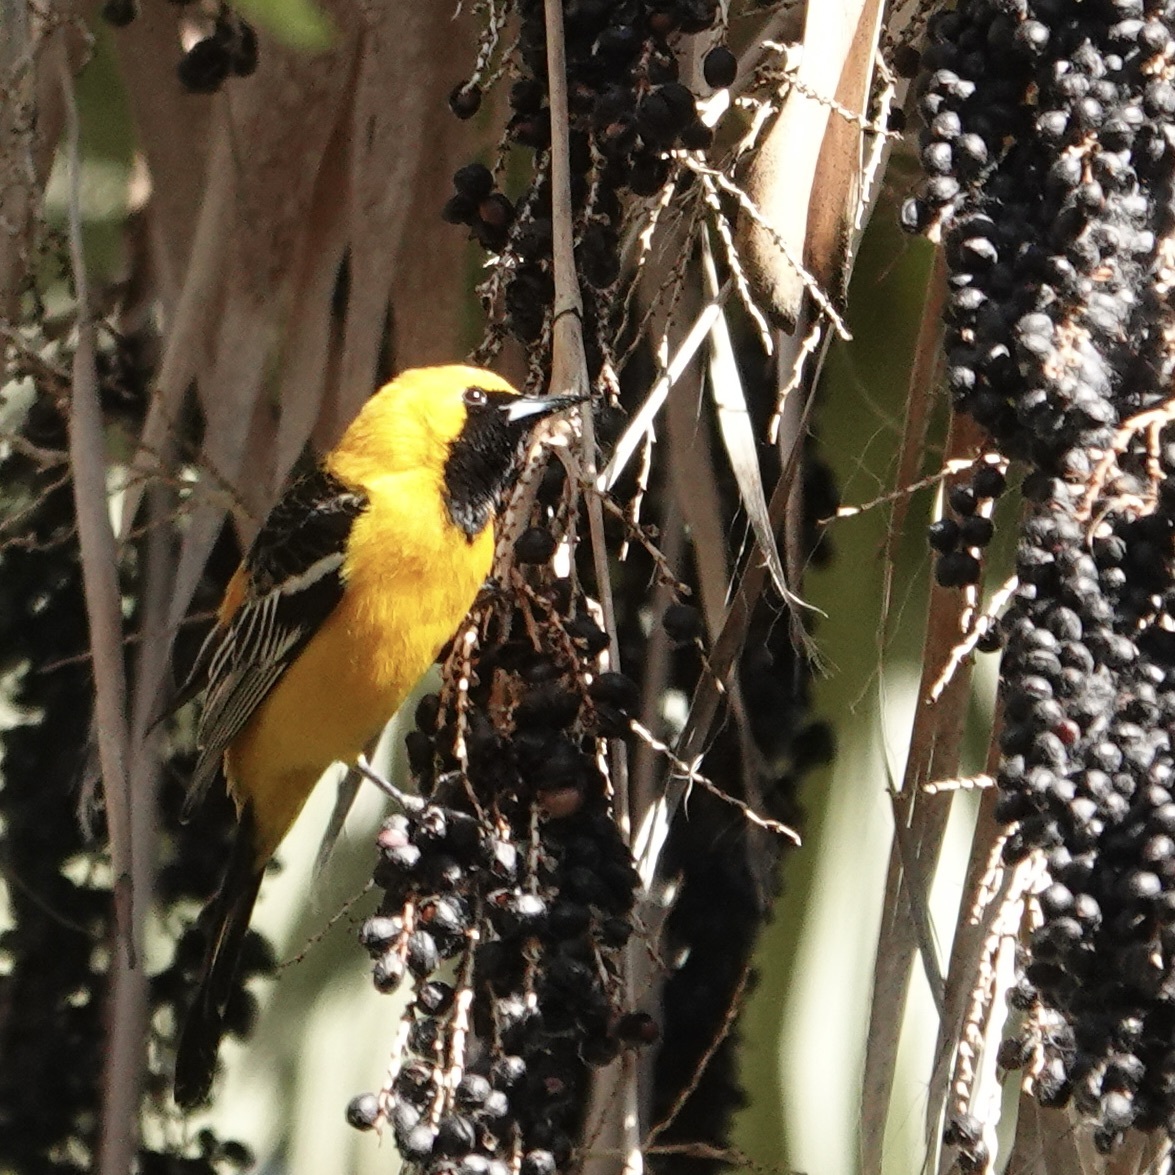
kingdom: Animalia
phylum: Chordata
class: Aves
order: Passeriformes
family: Icteridae
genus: Icterus
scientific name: Icterus cucullatus
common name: Hooded oriole
